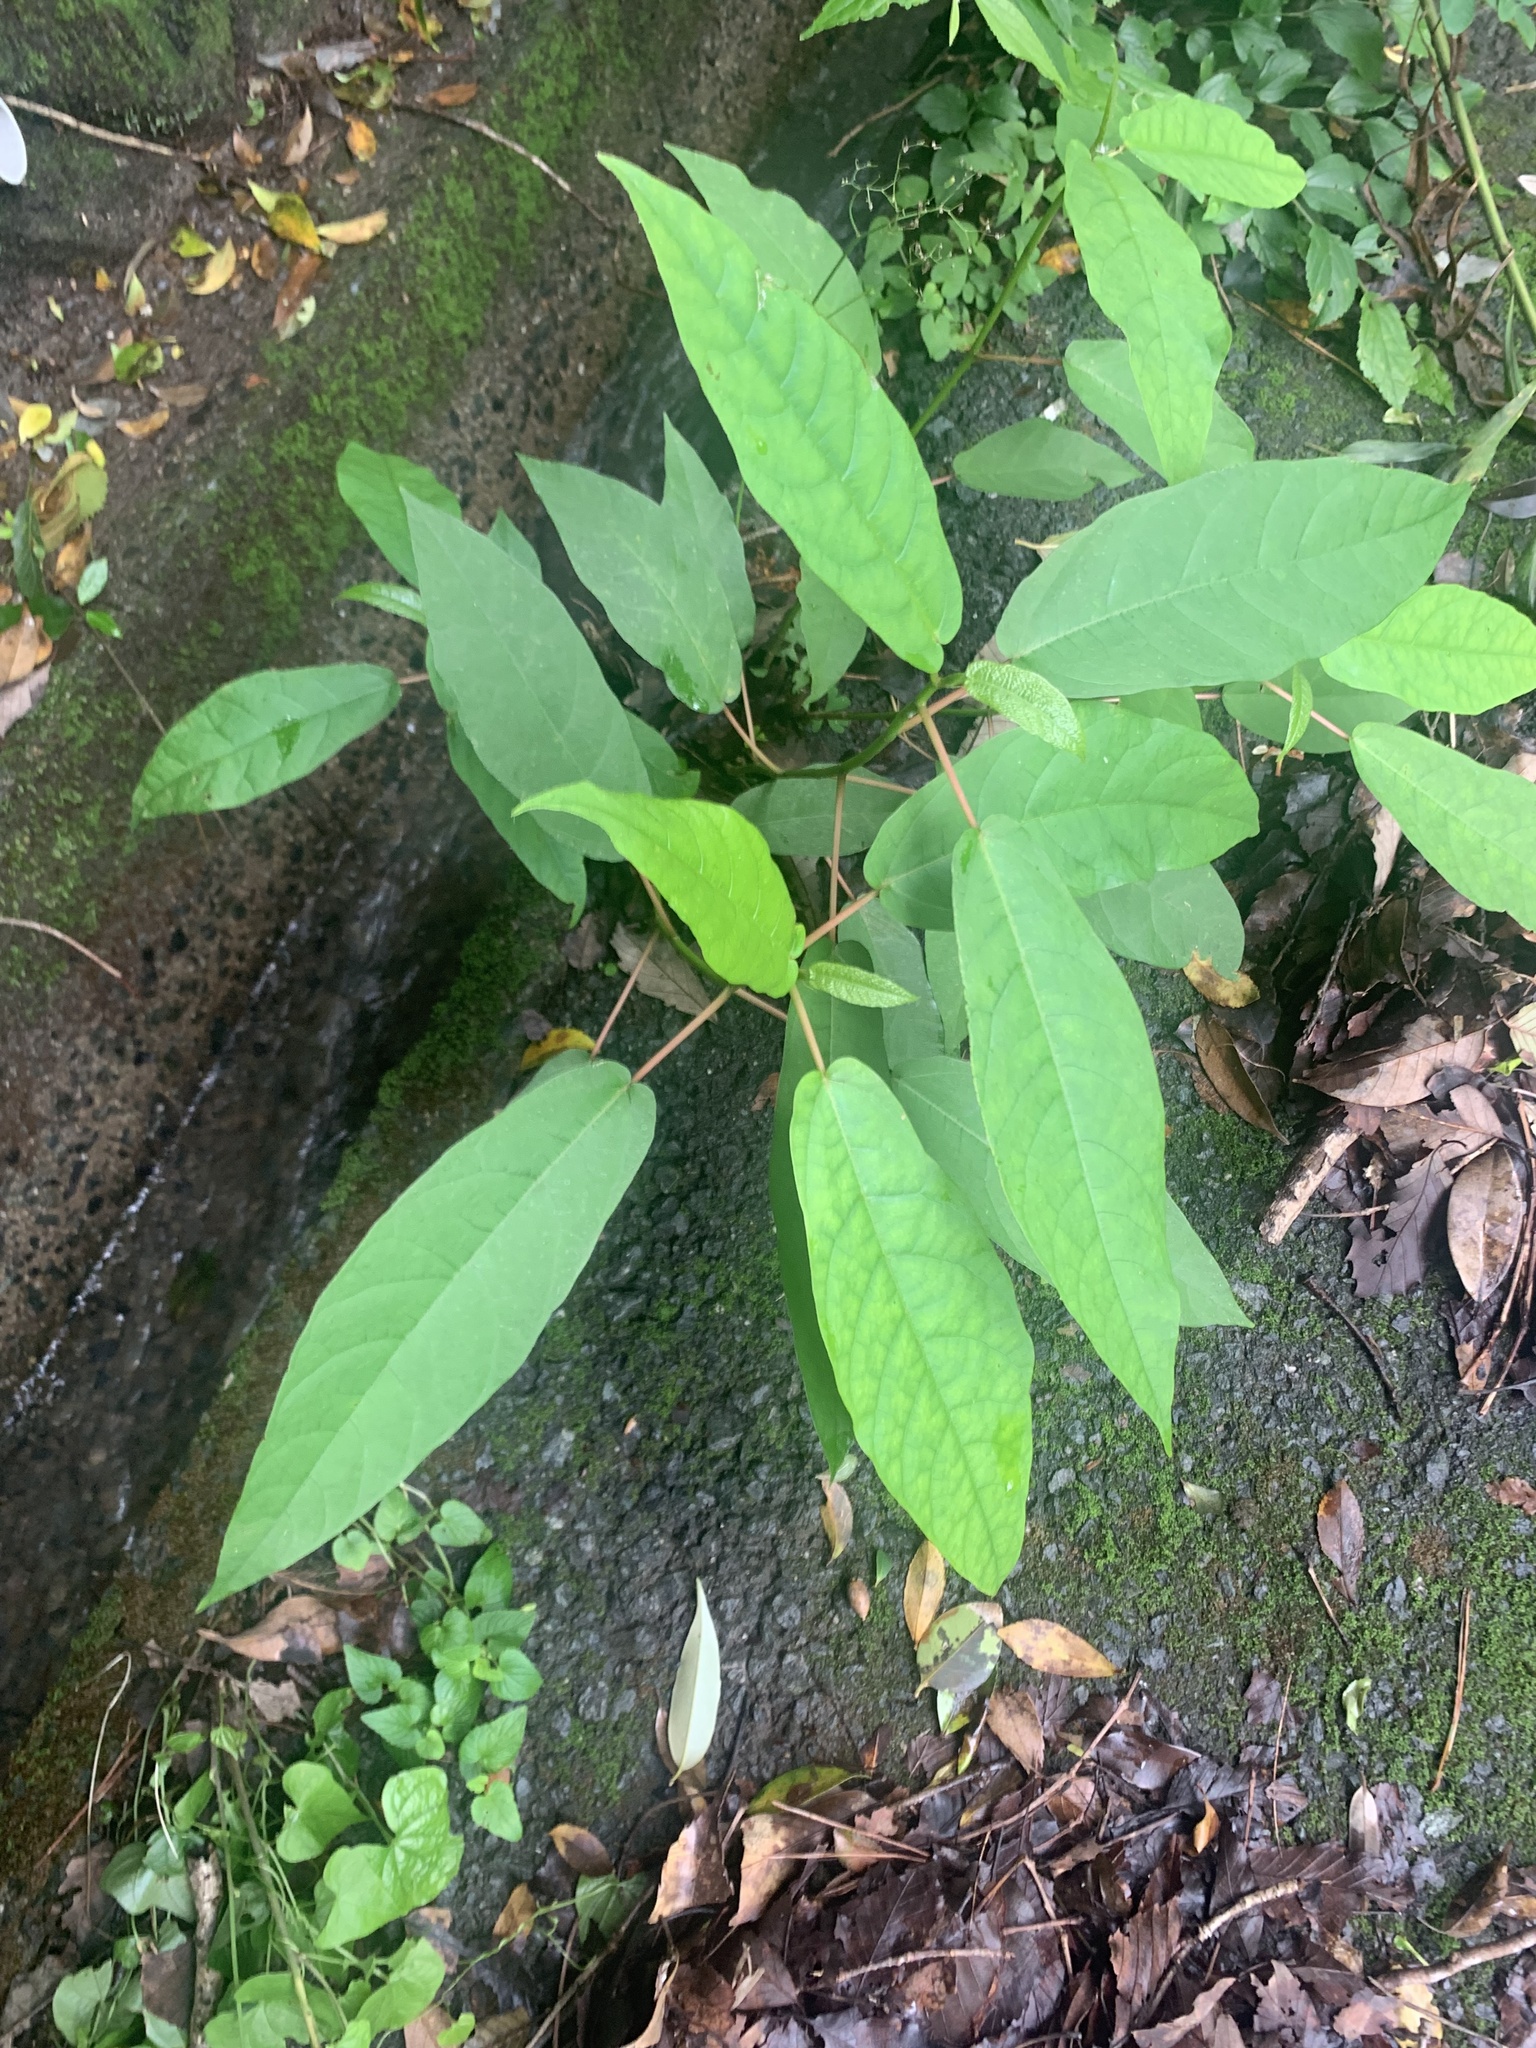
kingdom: Plantae
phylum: Tracheophyta
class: Magnoliopsida
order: Rosales
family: Moraceae
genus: Ficus
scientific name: Ficus erecta
